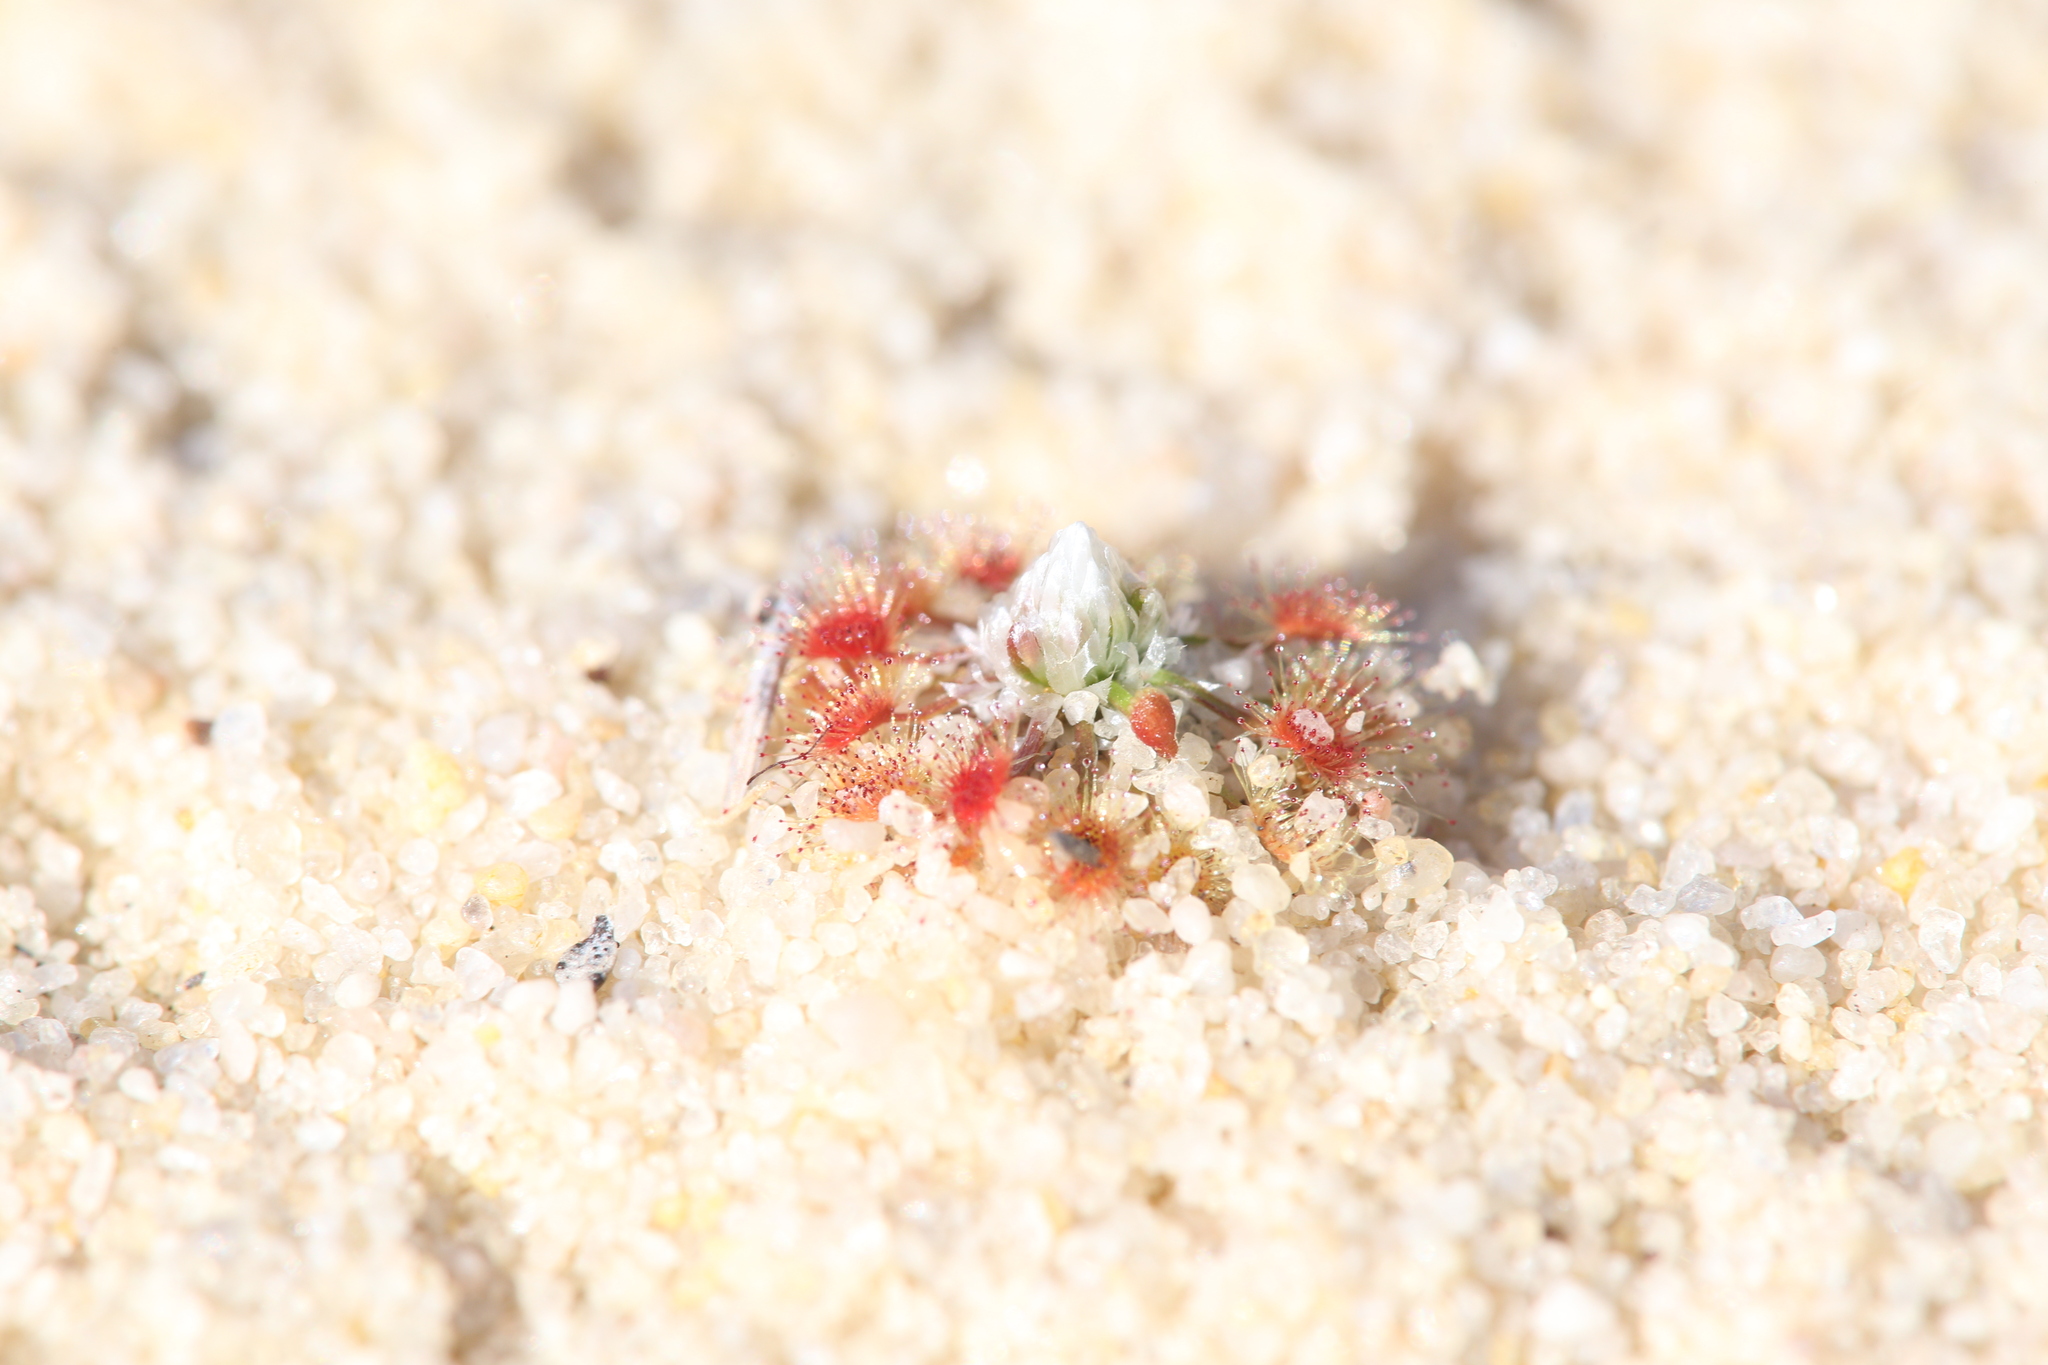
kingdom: Plantae
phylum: Tracheophyta
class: Magnoliopsida
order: Caryophyllales
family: Droseraceae
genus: Drosera
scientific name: Drosera rechingeri
